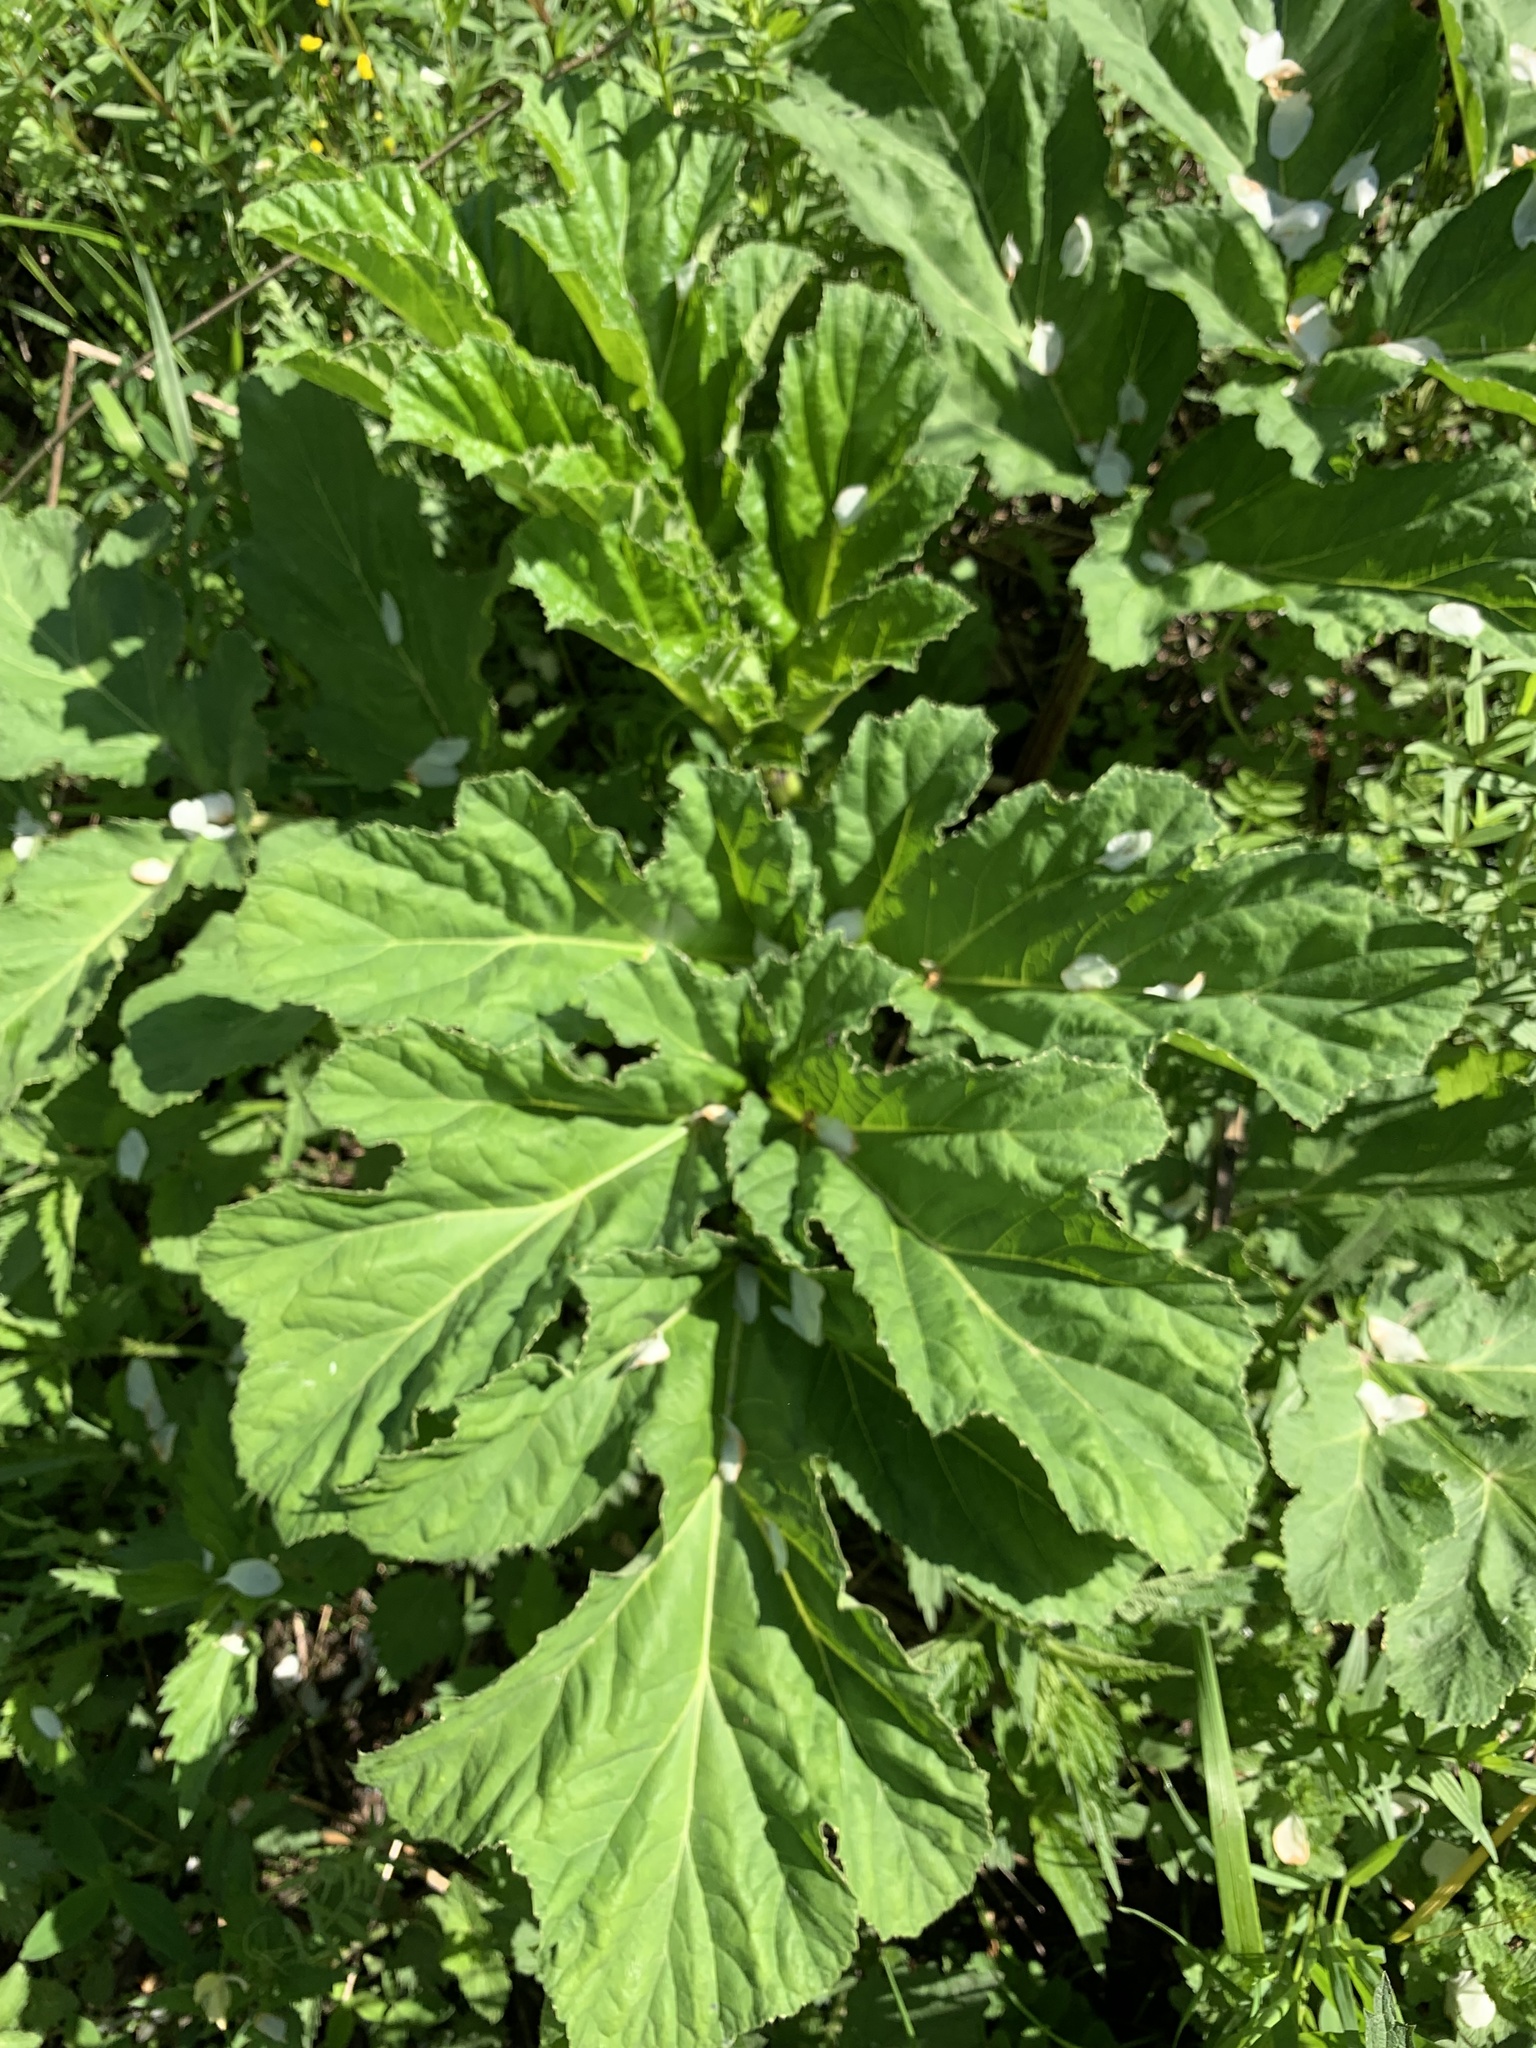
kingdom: Plantae
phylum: Tracheophyta
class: Magnoliopsida
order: Apiales
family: Apiaceae
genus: Heracleum
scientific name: Heracleum sosnowskyi
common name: Sosnowsky's hogweed
